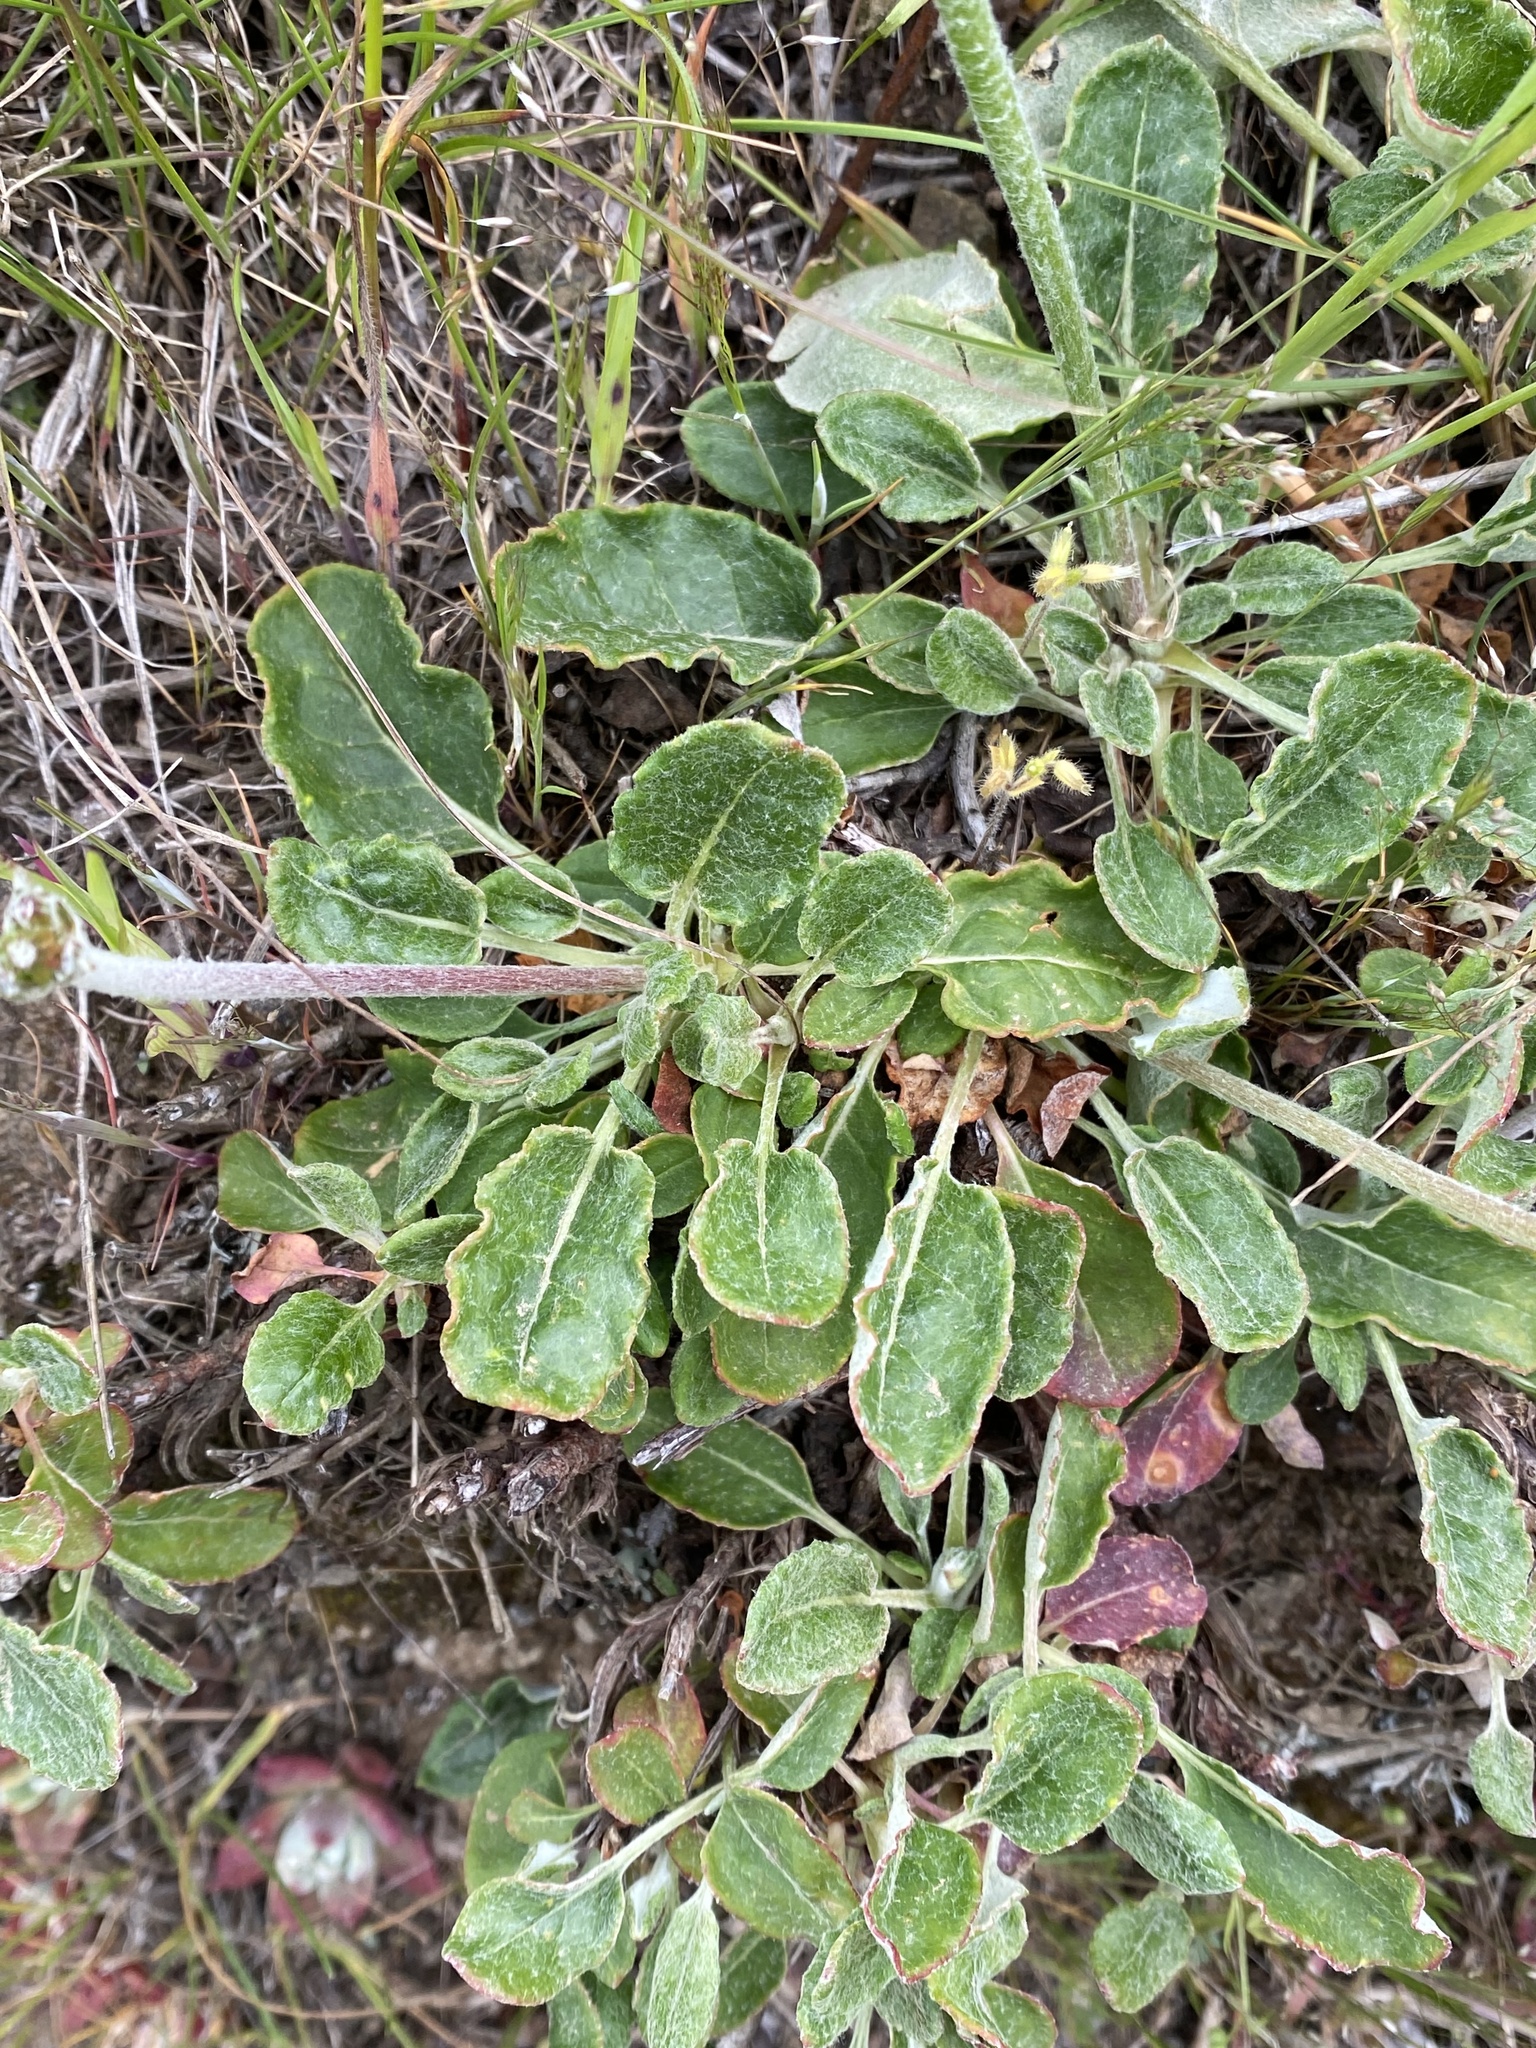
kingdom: Plantae
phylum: Tracheophyta
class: Magnoliopsida
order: Caryophyllales
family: Polygonaceae
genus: Eriogonum
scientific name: Eriogonum latifolium
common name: Seaside wild buckwheat
